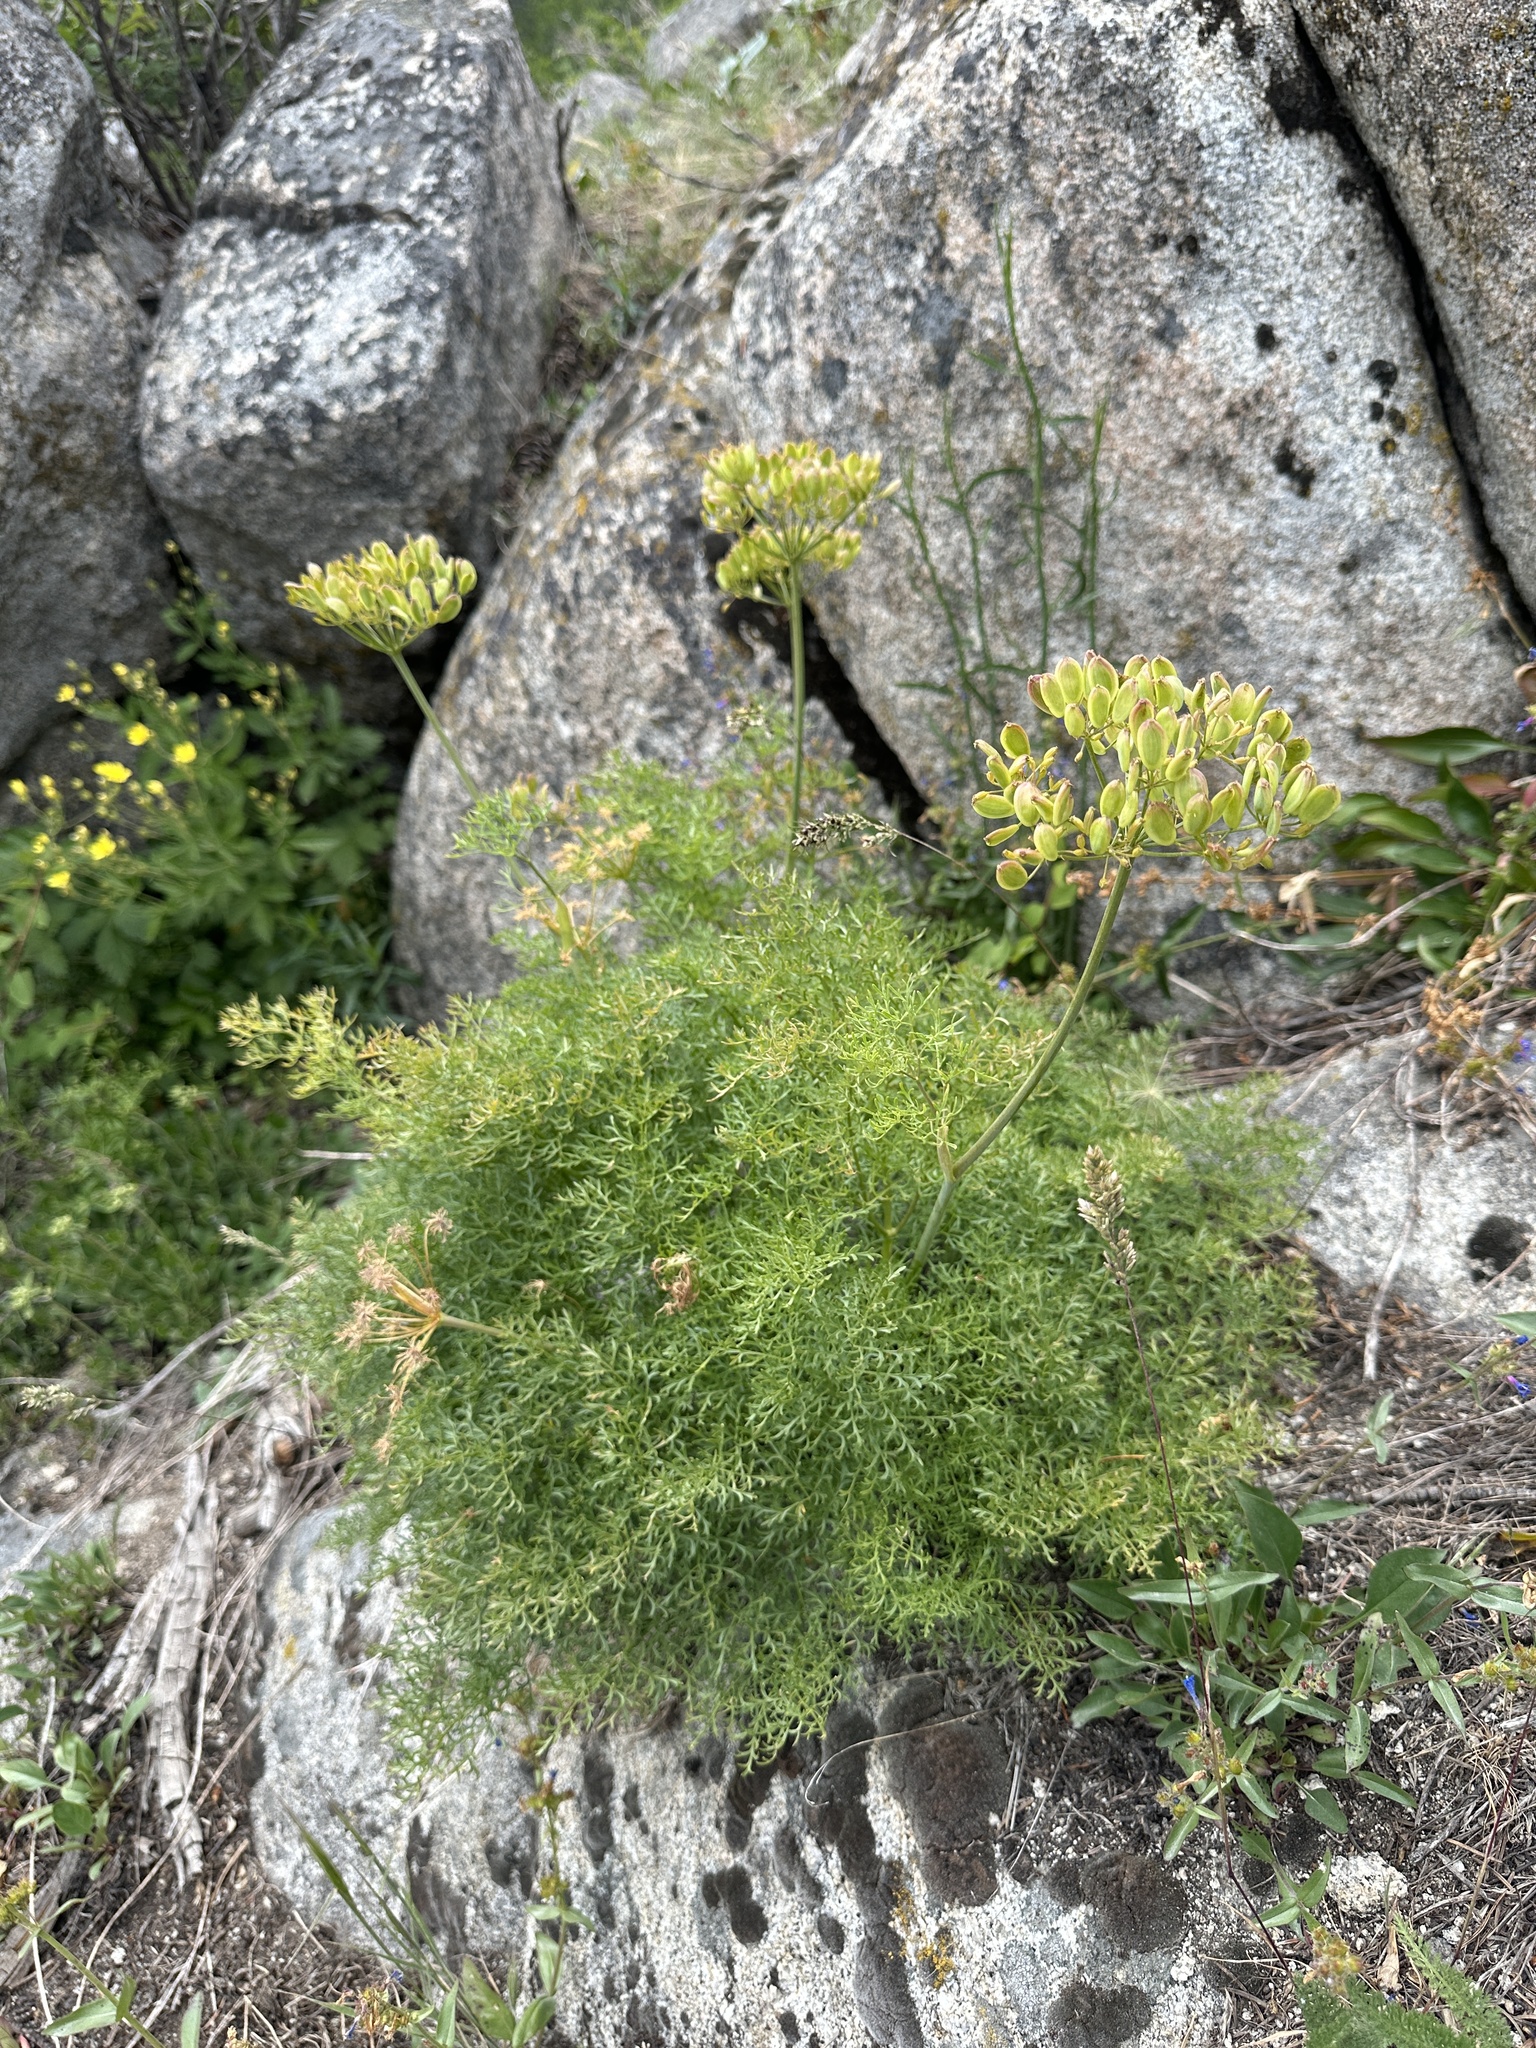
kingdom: Plantae
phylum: Tracheophyta
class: Magnoliopsida
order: Apiales
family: Apiaceae
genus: Lomatium
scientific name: Lomatium multifidum
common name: Carrot-leaved biscuitroot
